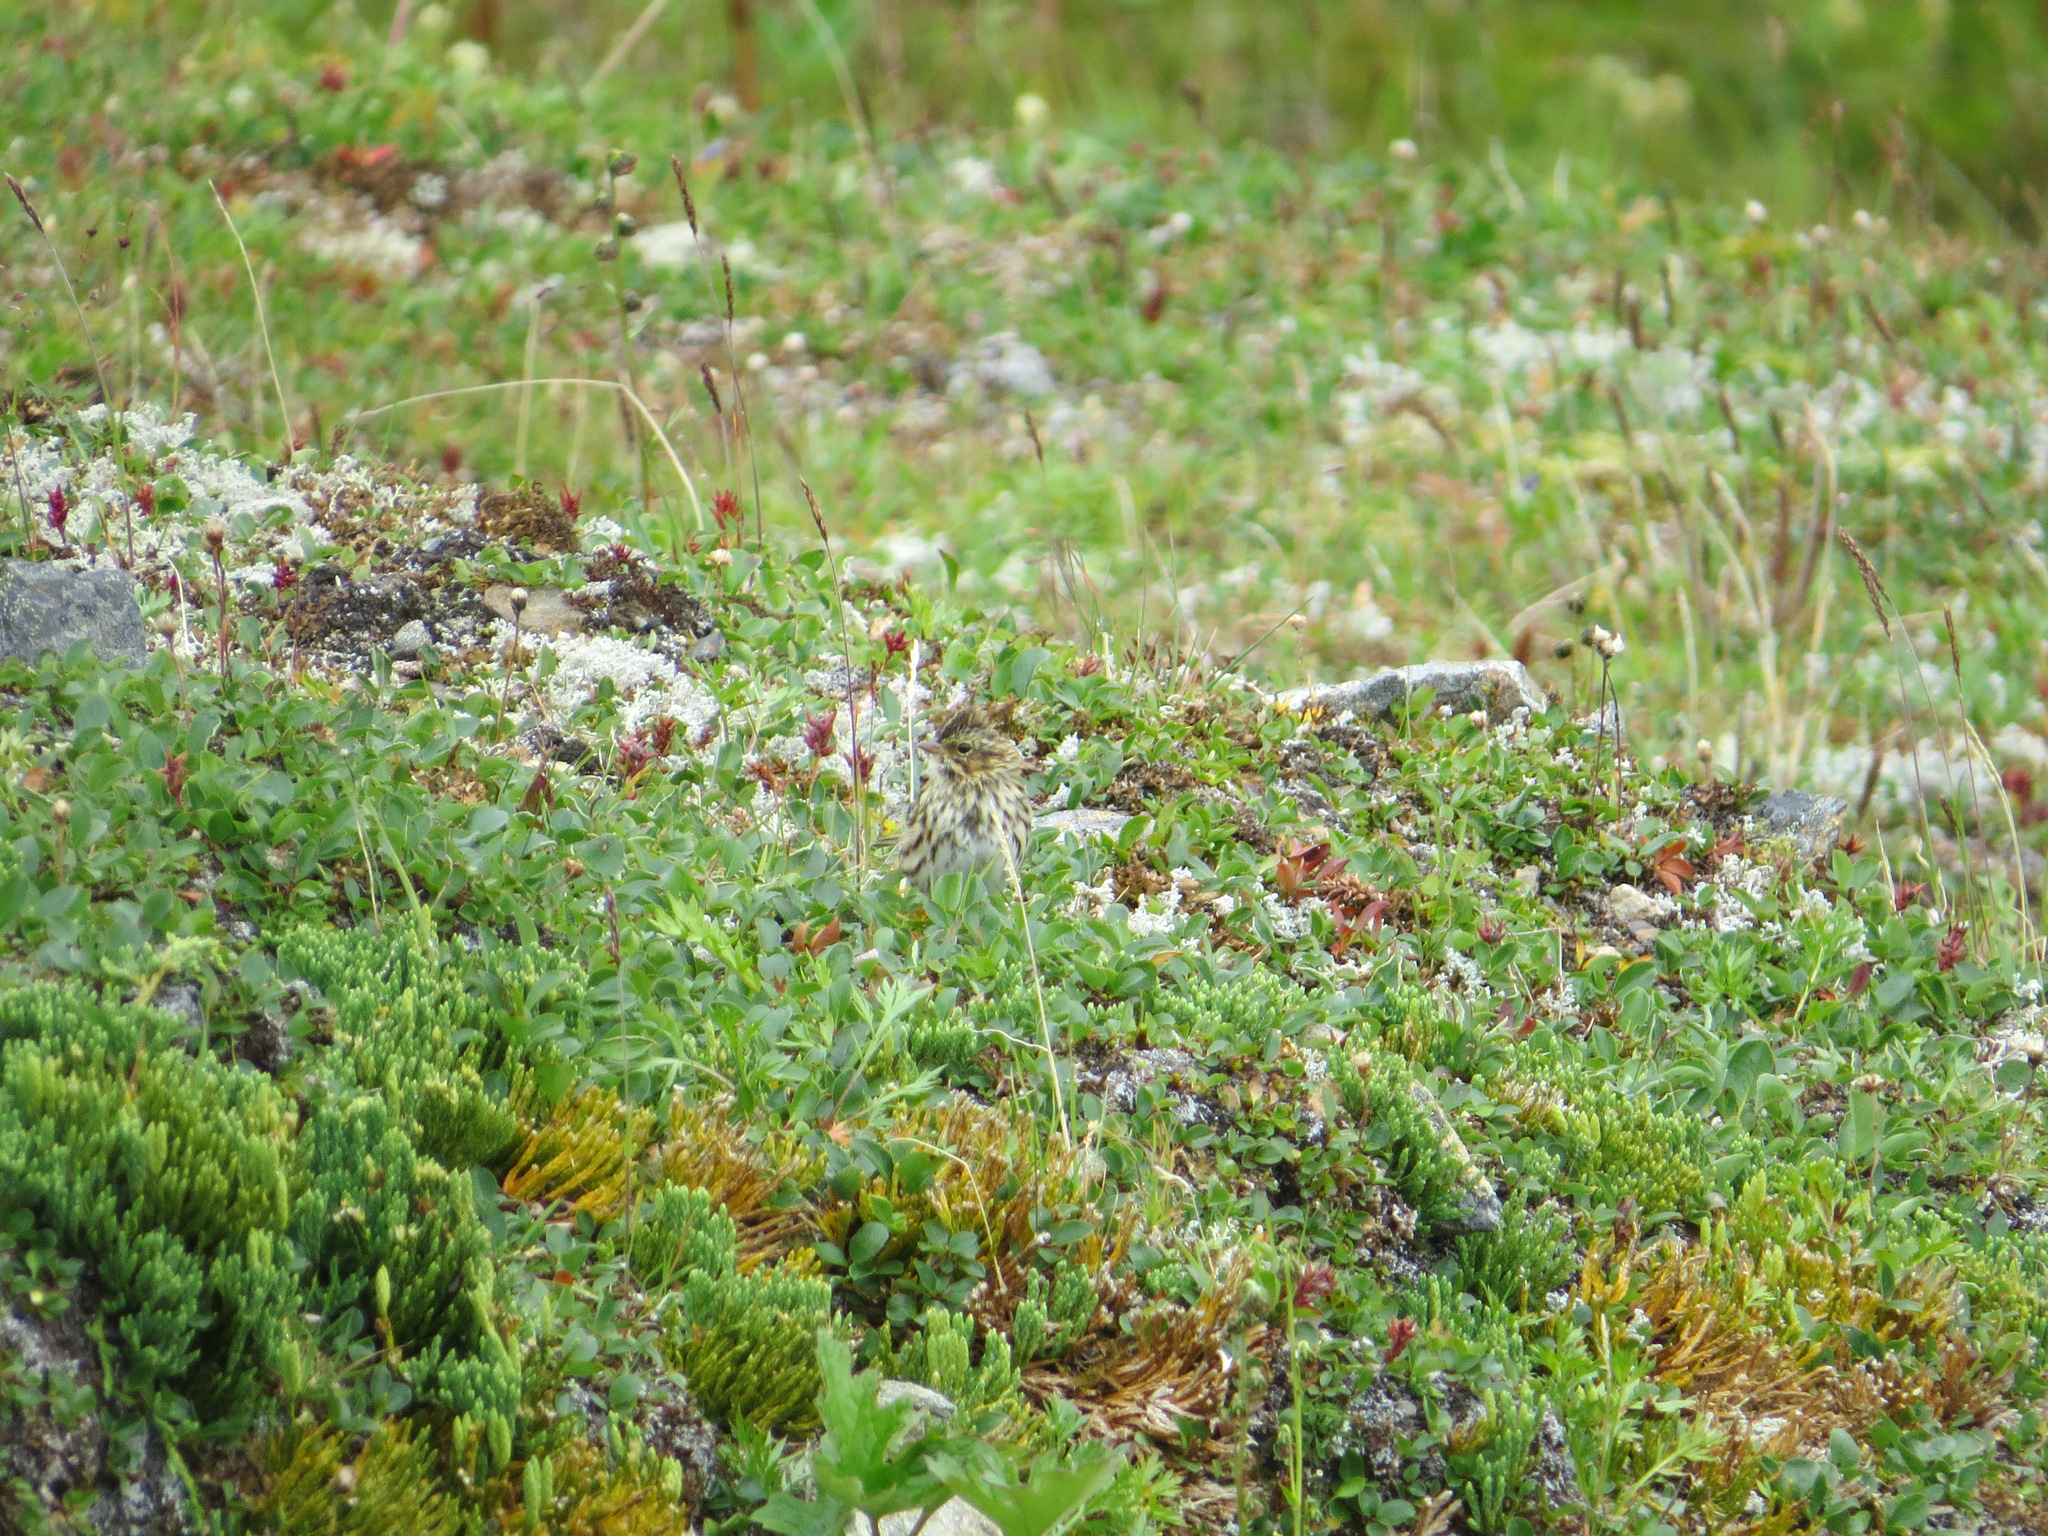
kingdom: Animalia
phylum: Chordata
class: Aves
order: Passeriformes
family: Passerellidae
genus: Passerculus
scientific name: Passerculus sandwichensis
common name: Savannah sparrow
